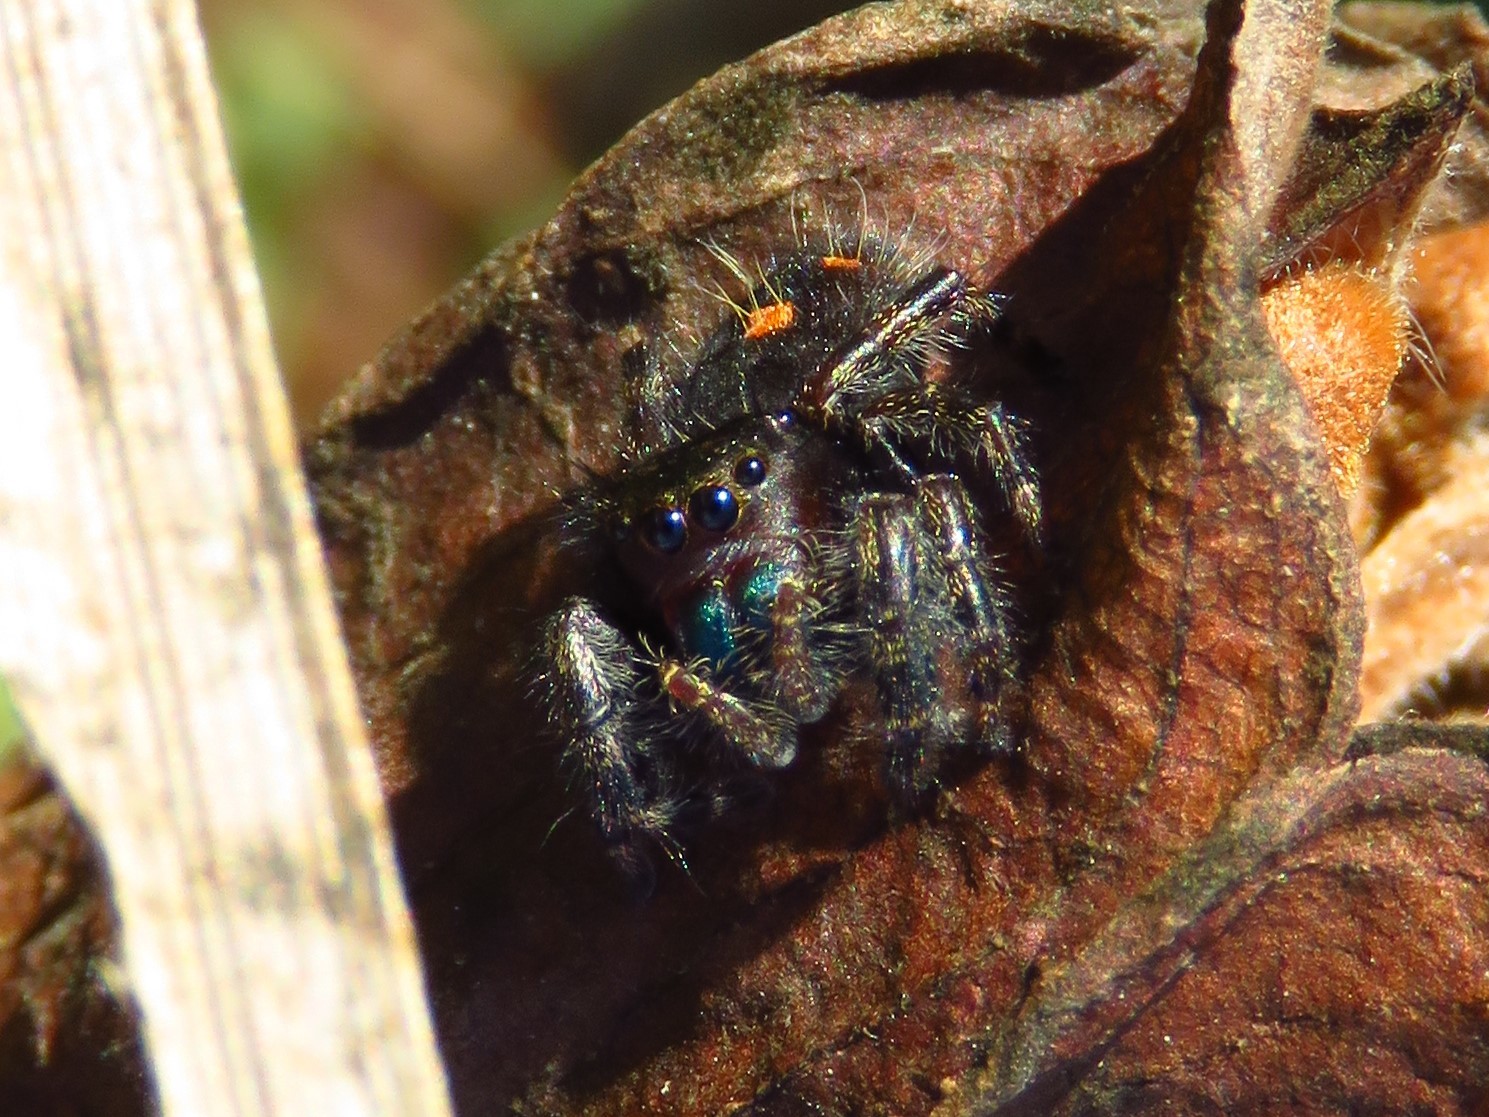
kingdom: Animalia
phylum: Arthropoda
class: Arachnida
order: Araneae
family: Salticidae
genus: Phidippus
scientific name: Phidippus audax
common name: Bold jumper
